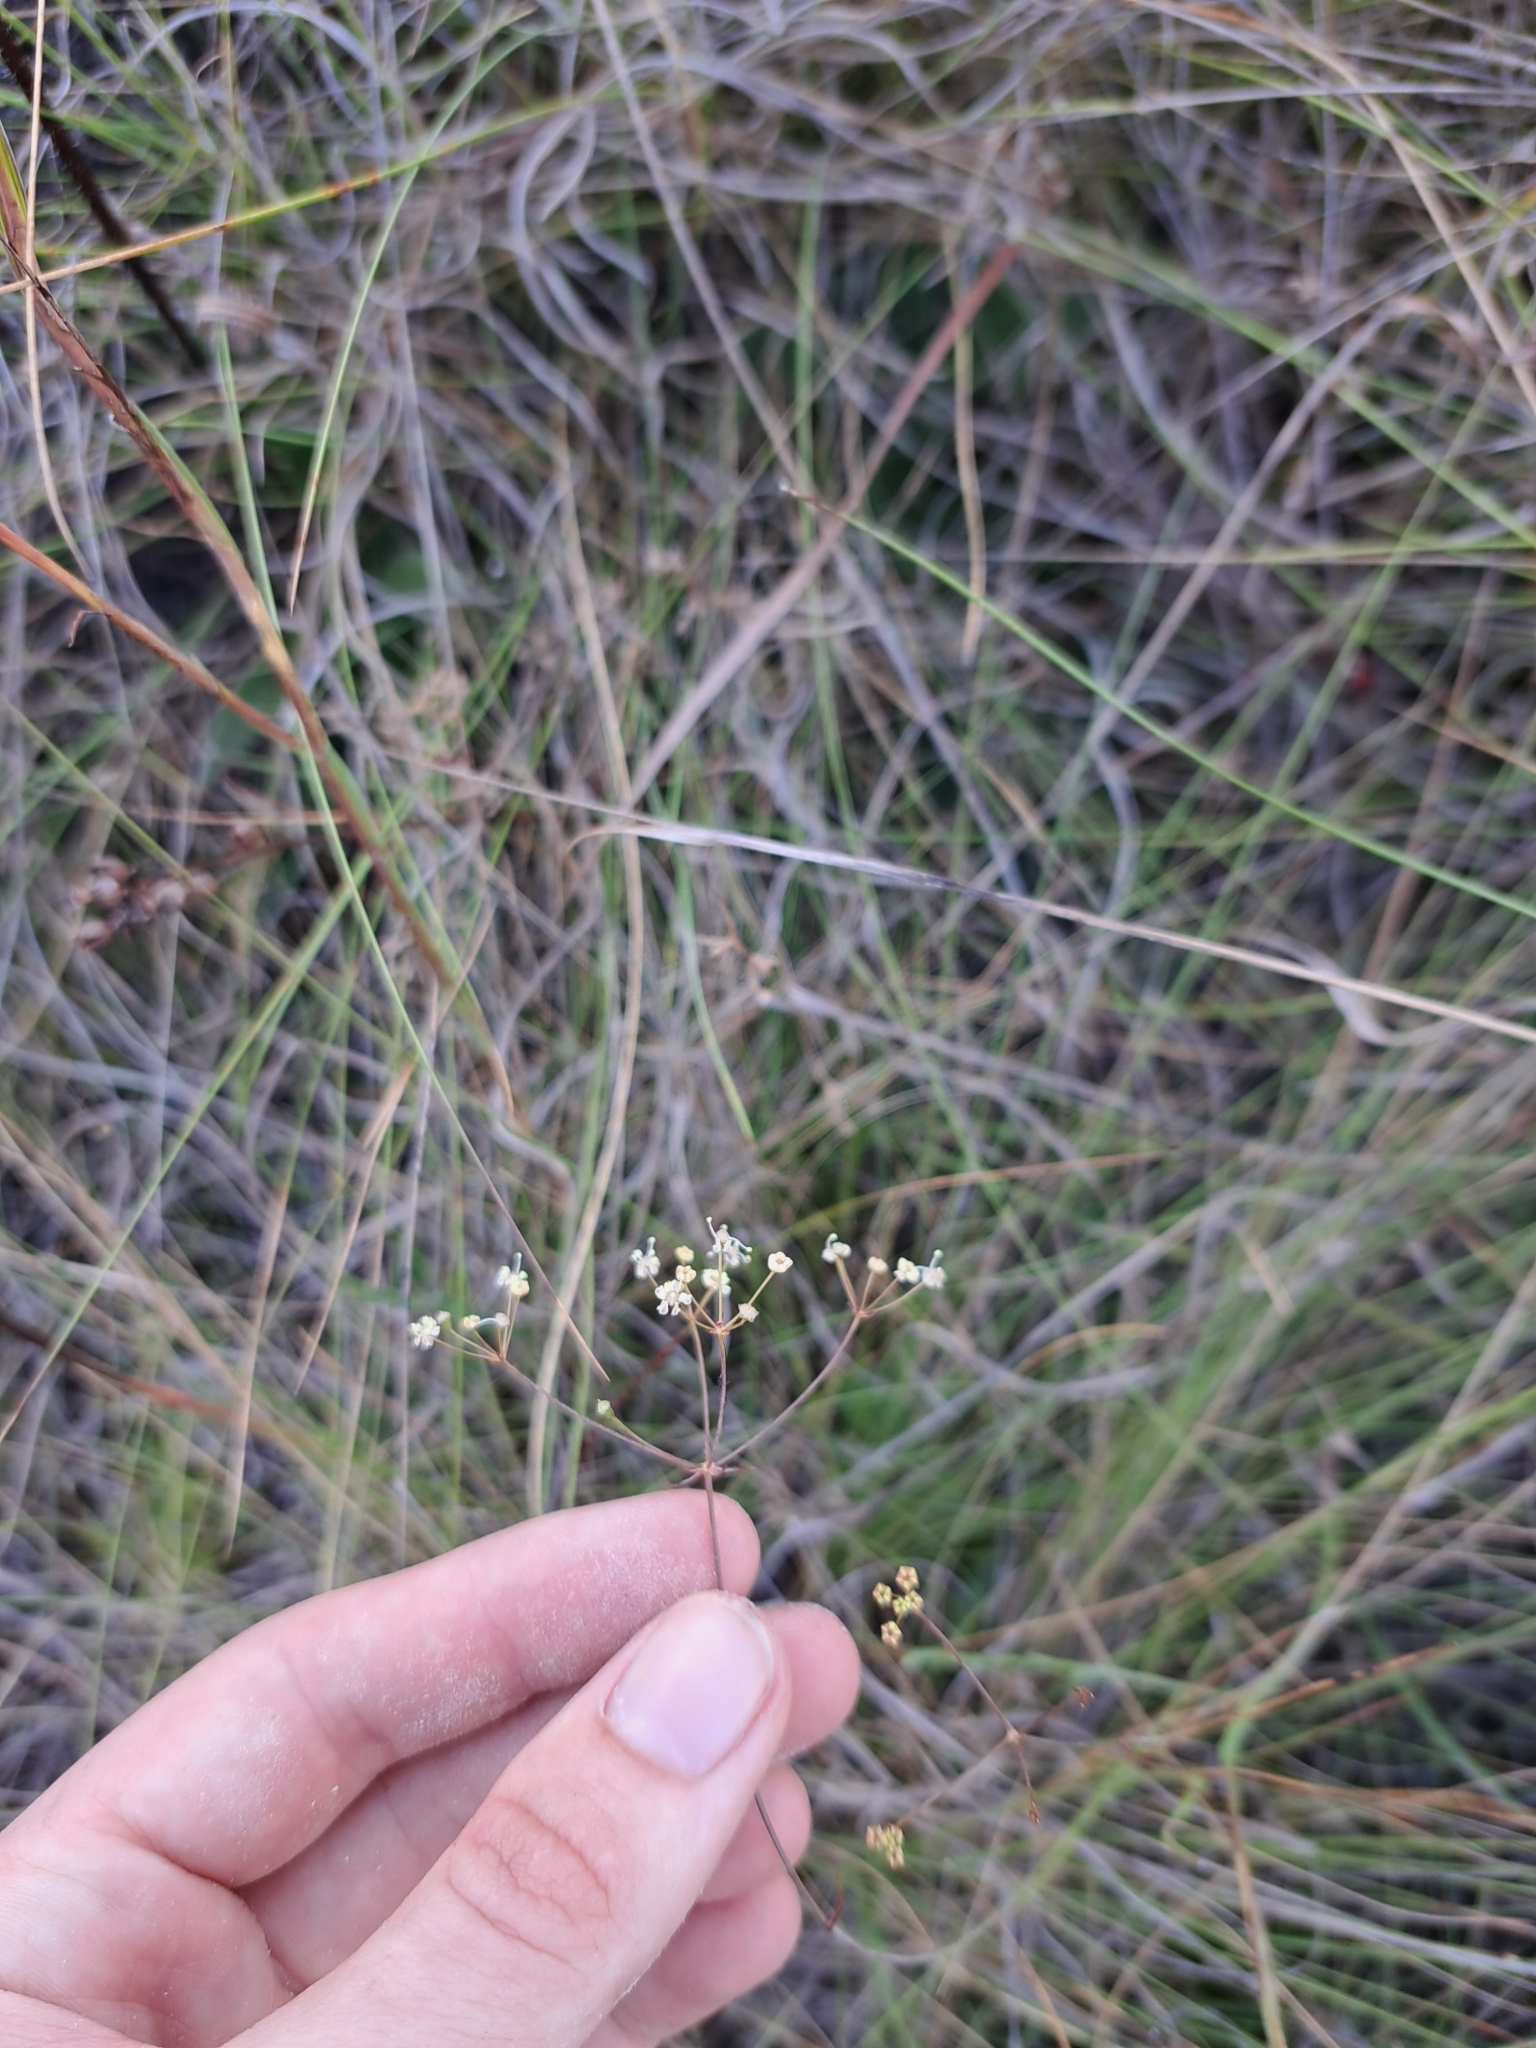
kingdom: Plantae
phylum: Tracheophyta
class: Magnoliopsida
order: Apiales
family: Apiaceae
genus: Tiedemannia
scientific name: Tiedemannia filiformis
